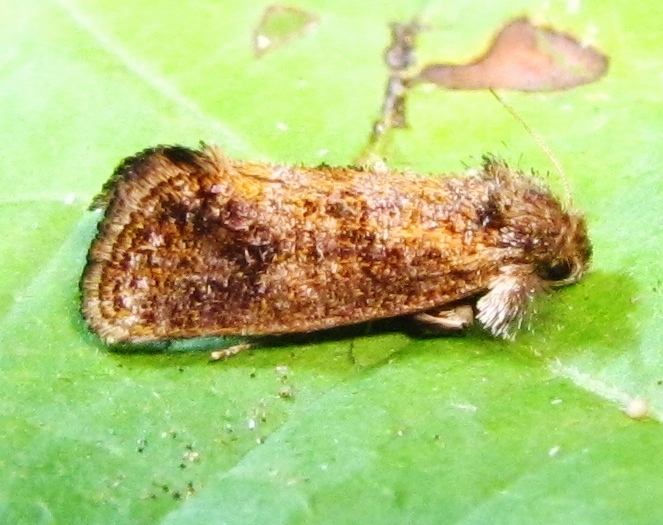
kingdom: Animalia
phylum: Arthropoda
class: Insecta
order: Lepidoptera
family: Tineidae
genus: Acrolophus
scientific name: Acrolophus panamae
